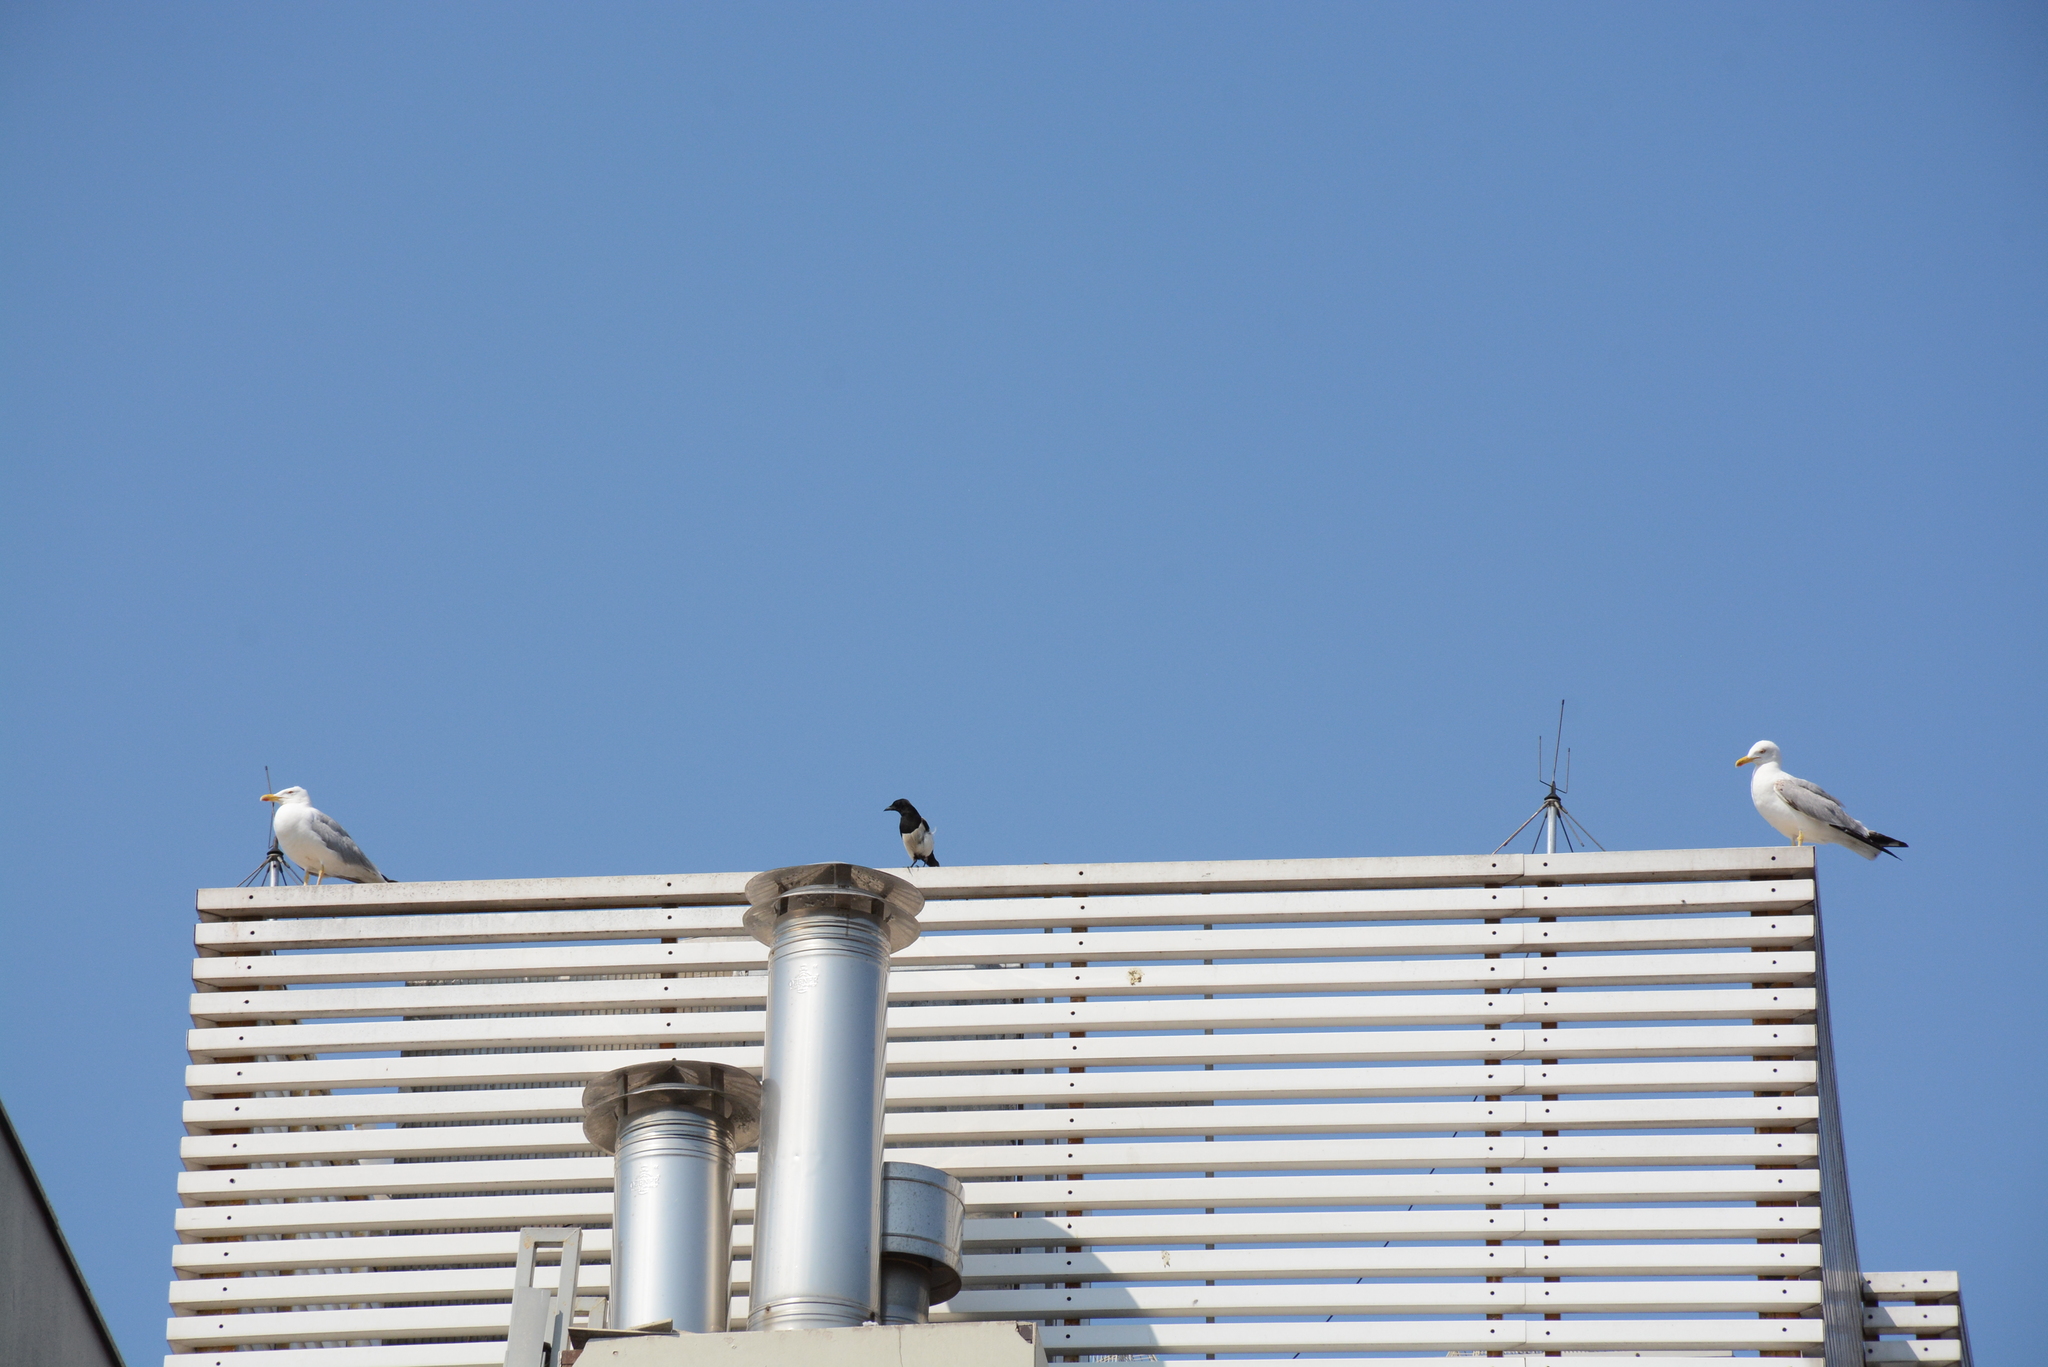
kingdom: Animalia
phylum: Chordata
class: Aves
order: Passeriformes
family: Corvidae
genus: Pica
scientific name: Pica pica
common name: Eurasian magpie
